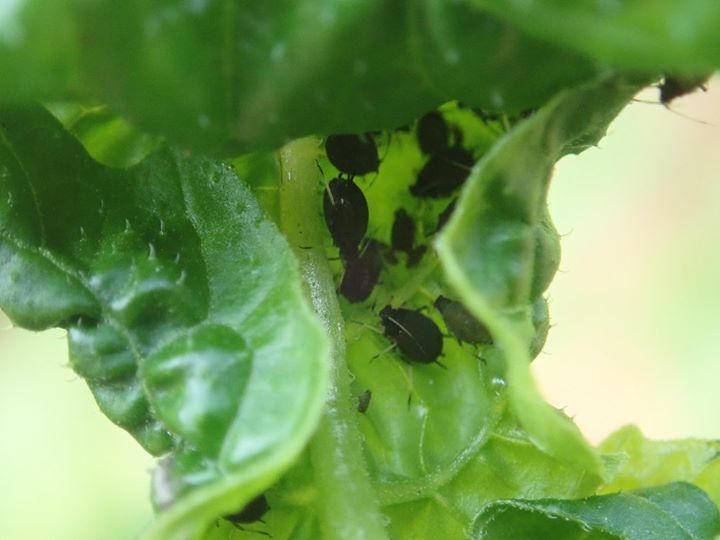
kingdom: Animalia
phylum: Arthropoda
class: Insecta
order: Hemiptera
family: Aphididae
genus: Aphis
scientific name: Aphis gossypii
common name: Melon aphid
